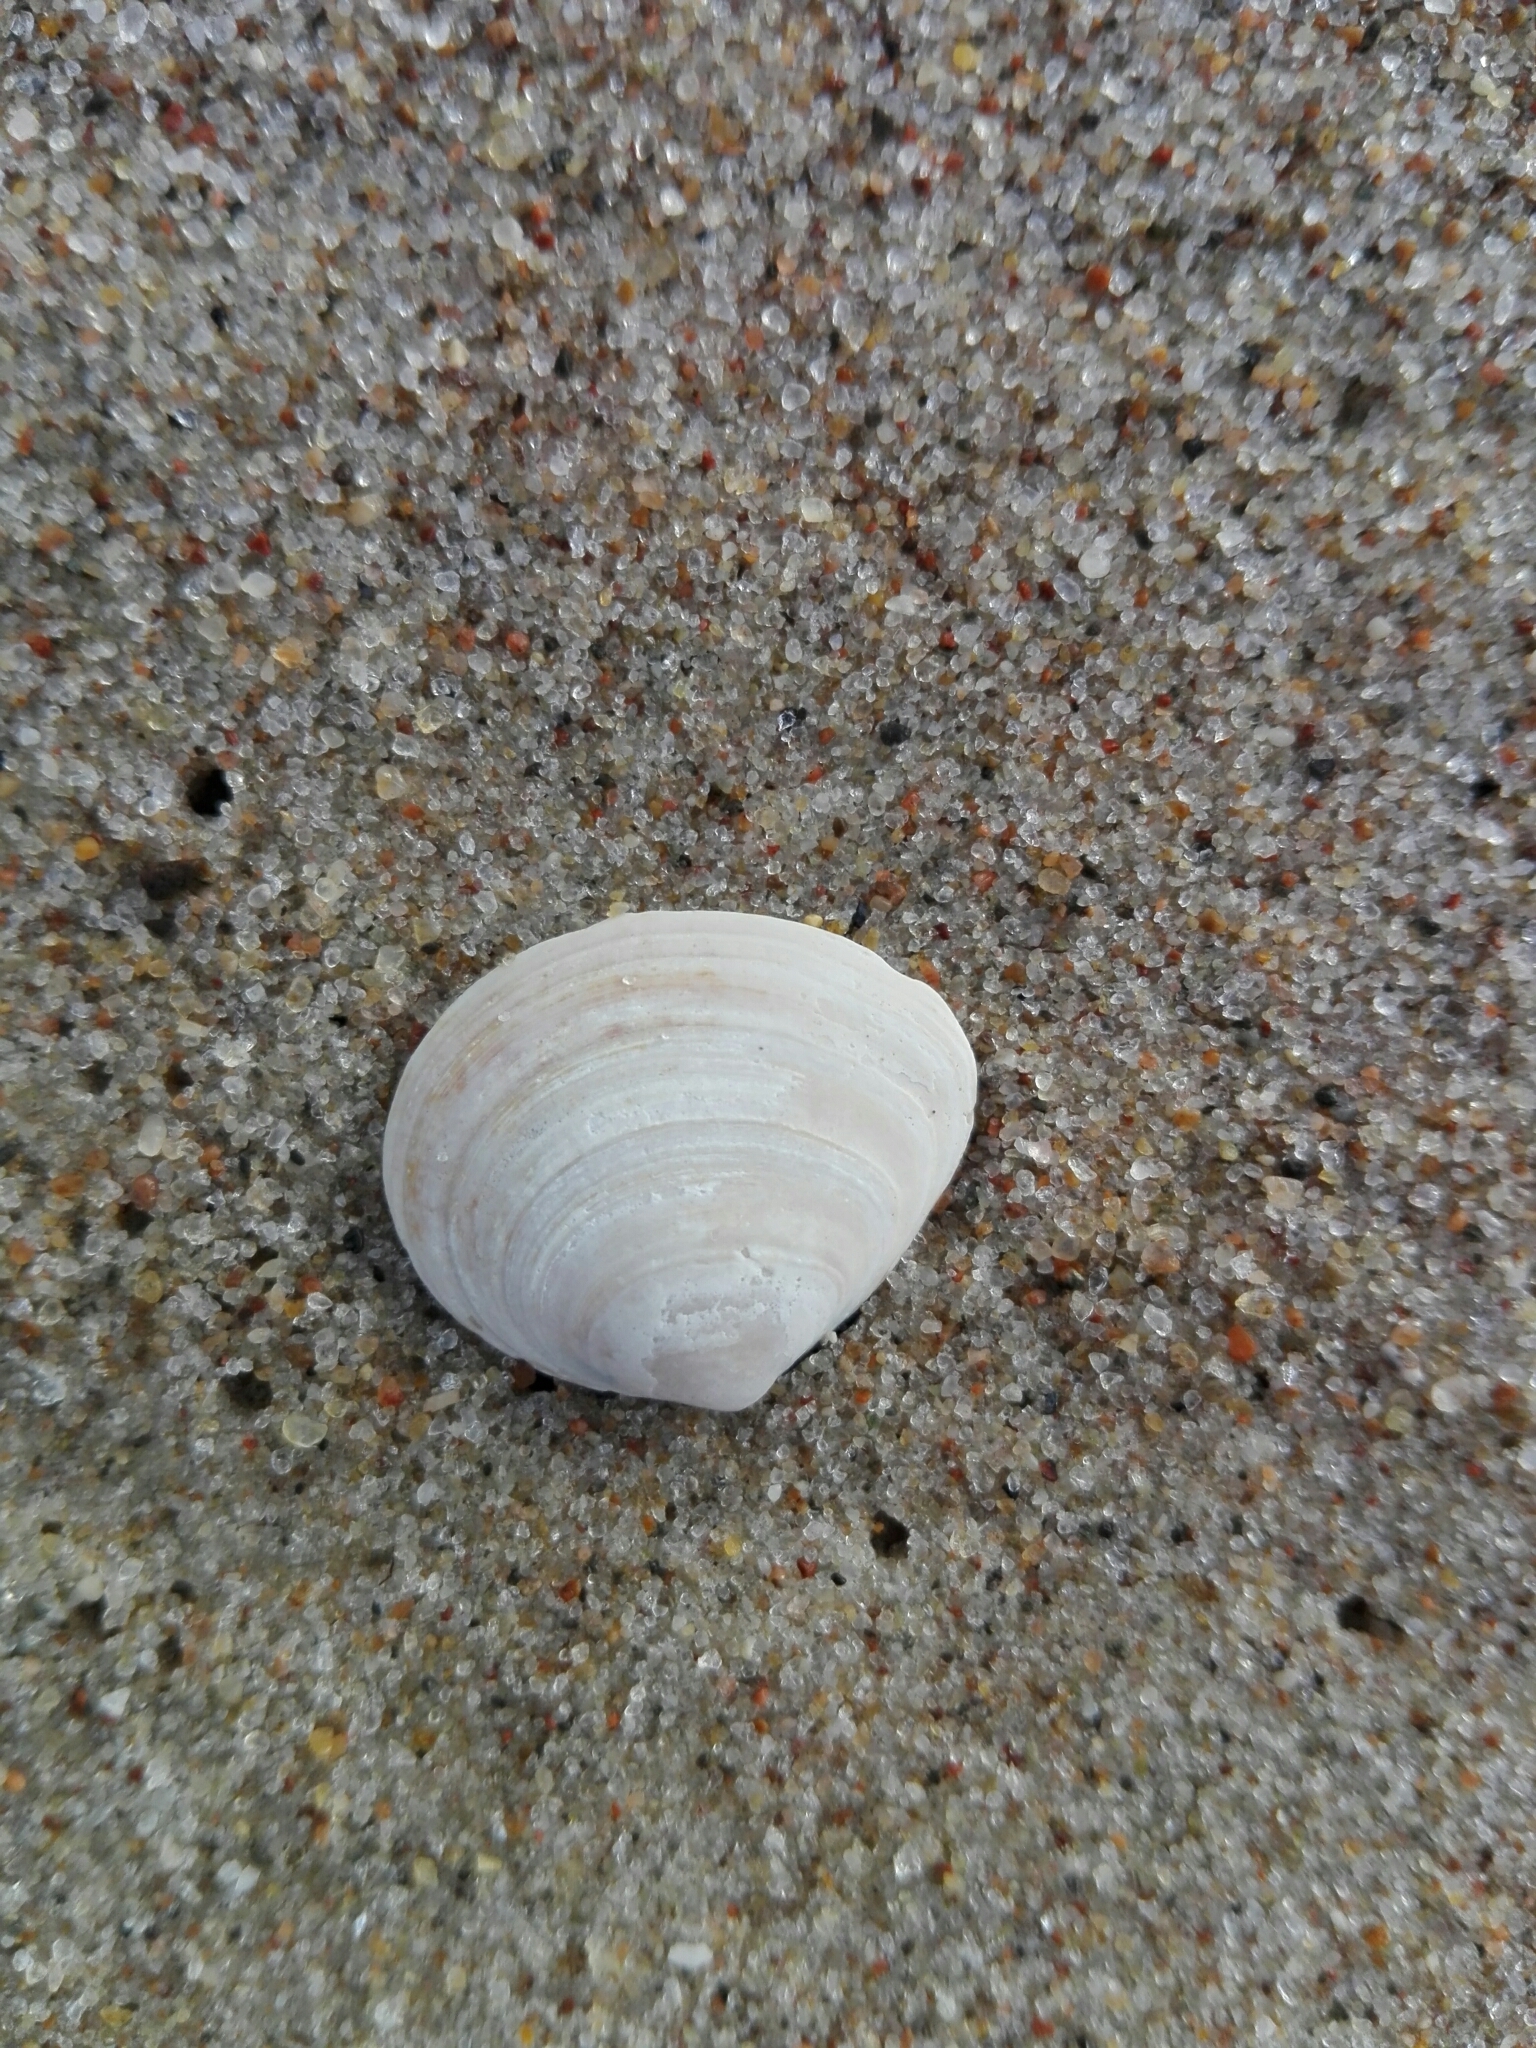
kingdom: Animalia
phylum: Mollusca
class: Bivalvia
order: Cardiida
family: Tellinidae
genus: Macoma
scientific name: Macoma balthica
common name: Baltic tellin
